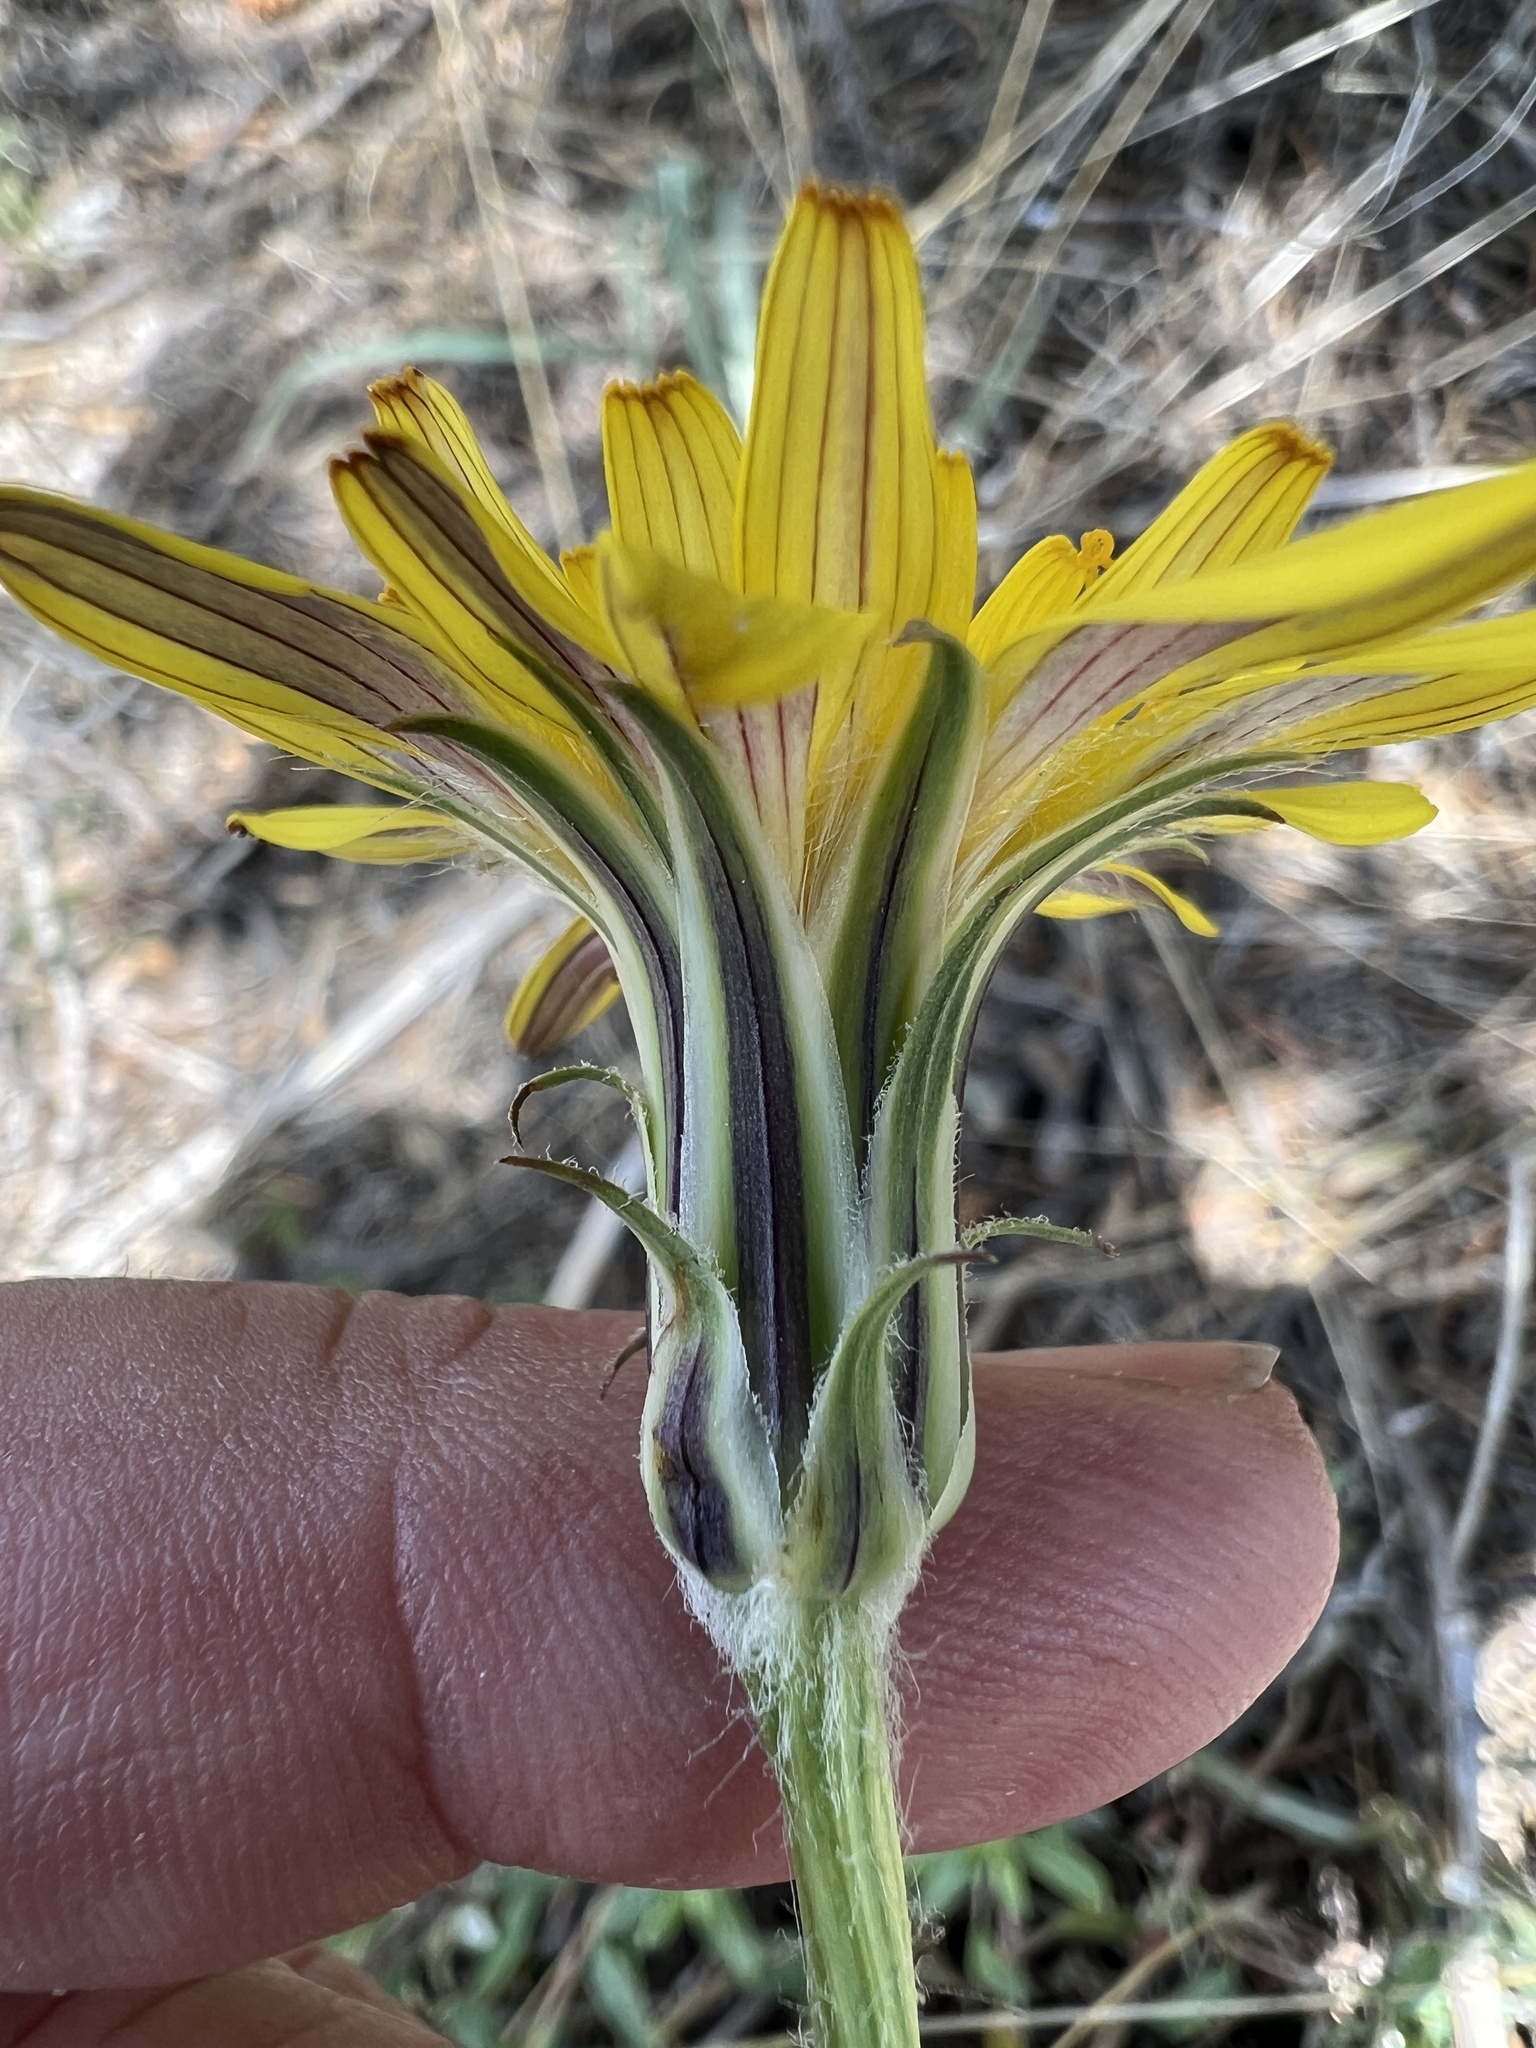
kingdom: Plantae
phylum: Tracheophyta
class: Magnoliopsida
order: Asterales
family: Asteraceae
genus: Agoseris
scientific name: Agoseris parviflora
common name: Steppe agoseris
